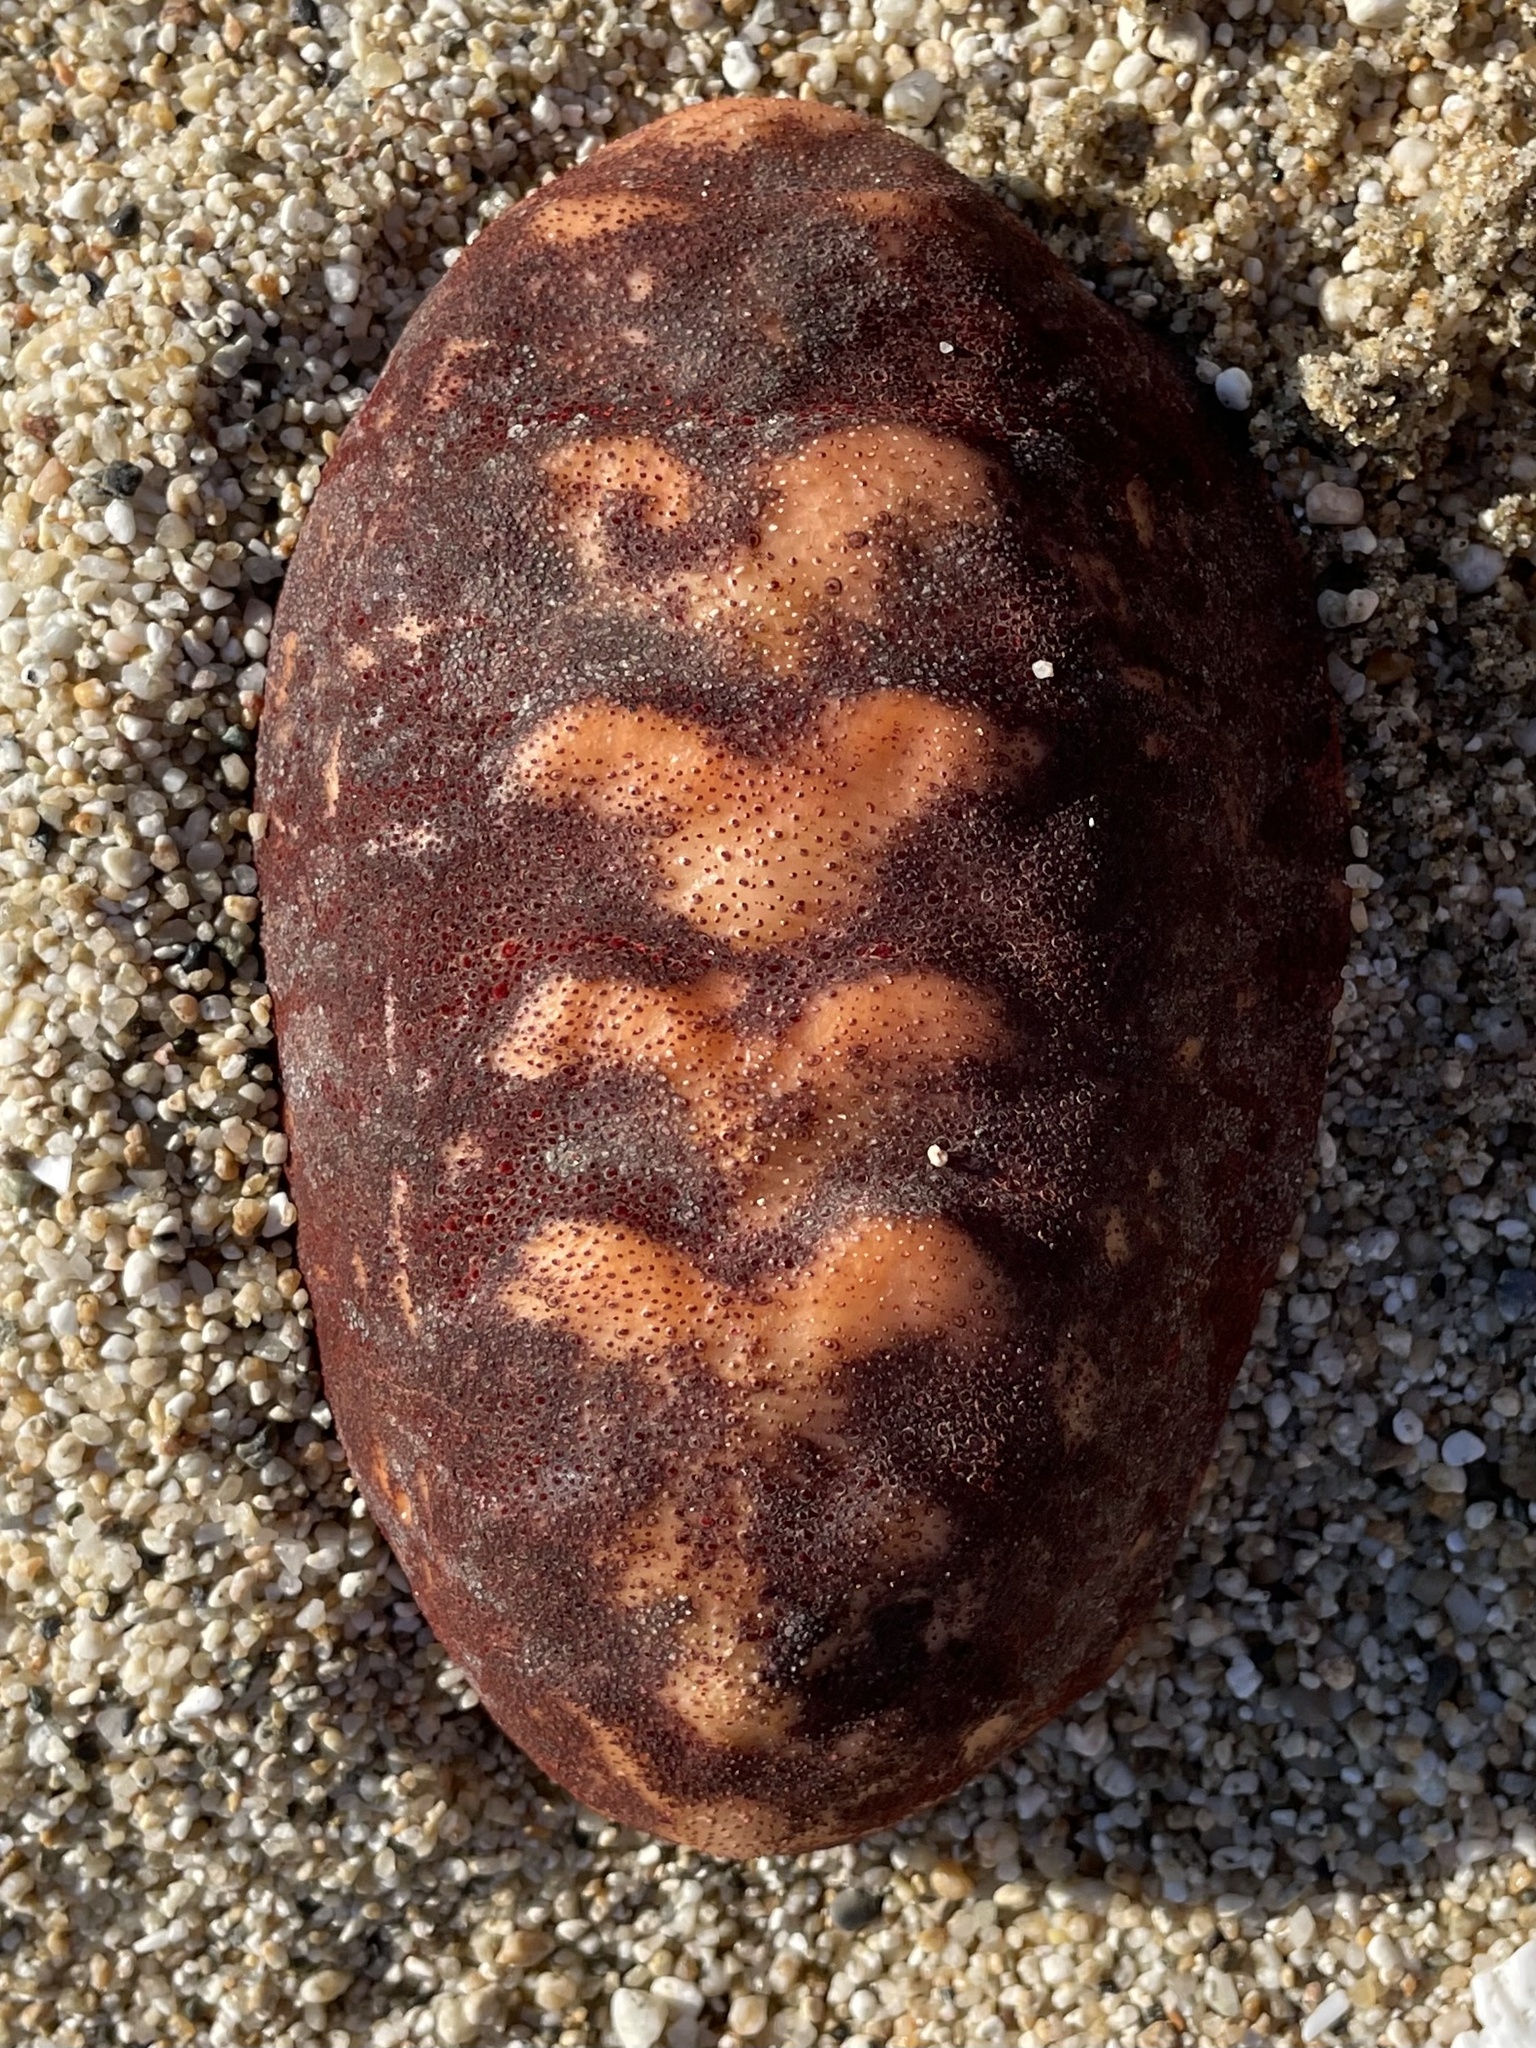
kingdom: Animalia
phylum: Mollusca
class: Polyplacophora
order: Chitonida
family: Acanthochitonidae
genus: Cryptochiton
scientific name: Cryptochiton stelleri
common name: Giant pacific chiton
